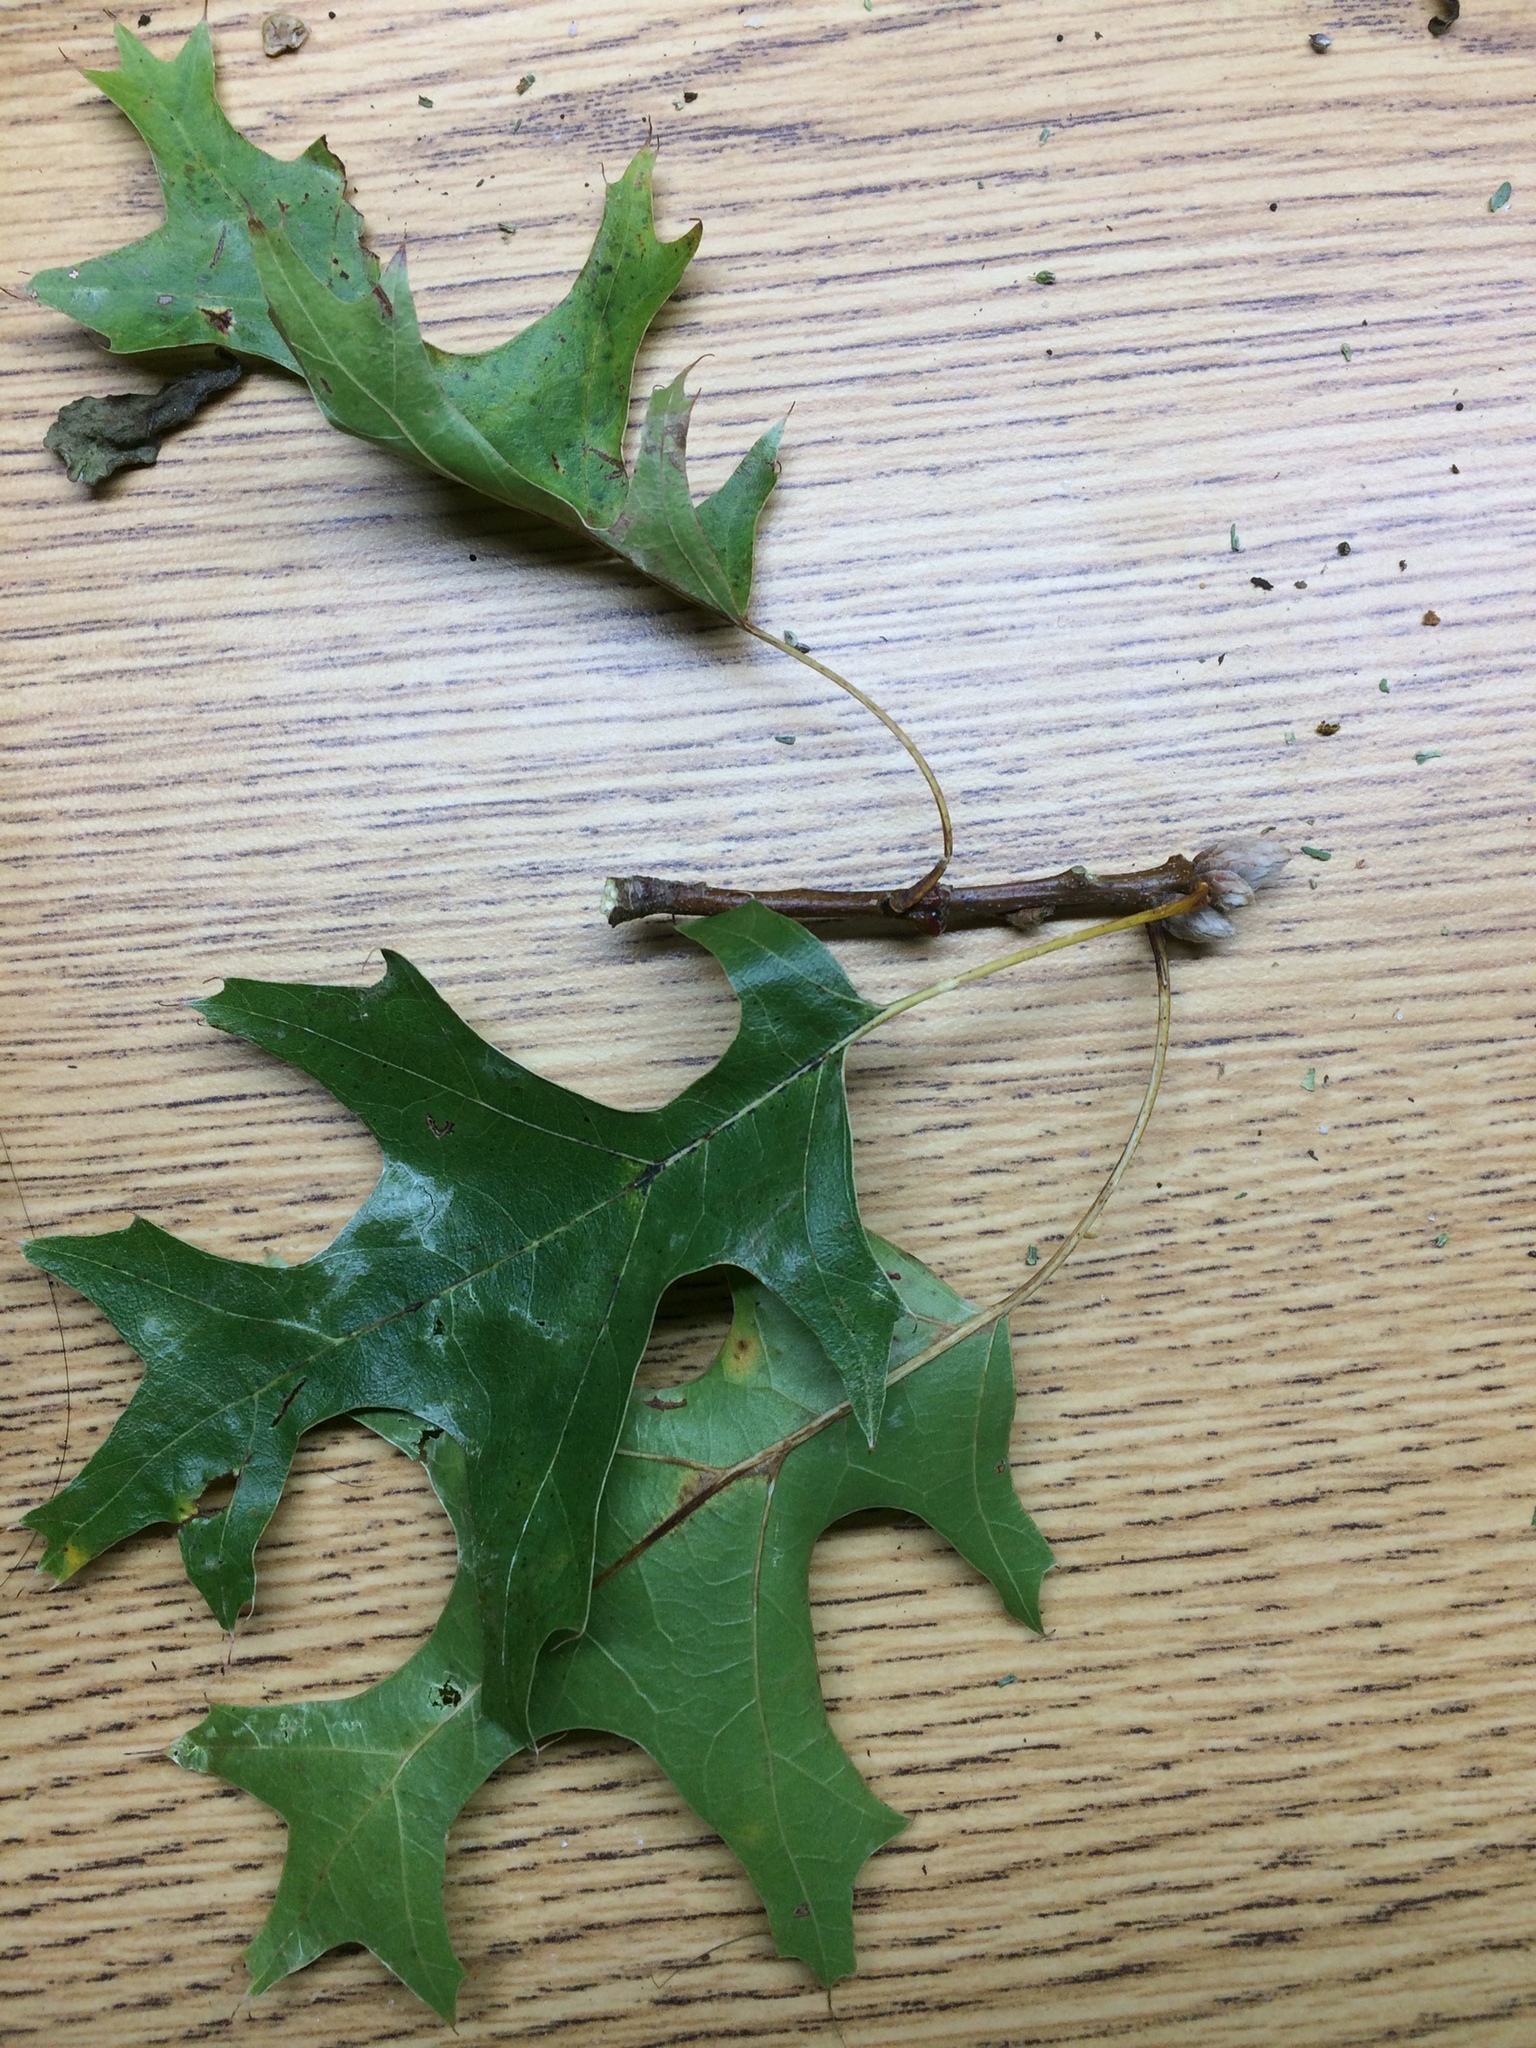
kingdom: Plantae
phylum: Tracheophyta
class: Magnoliopsida
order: Fagales
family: Fagaceae
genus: Quercus
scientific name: Quercus coccinea
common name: Scarlet oak
